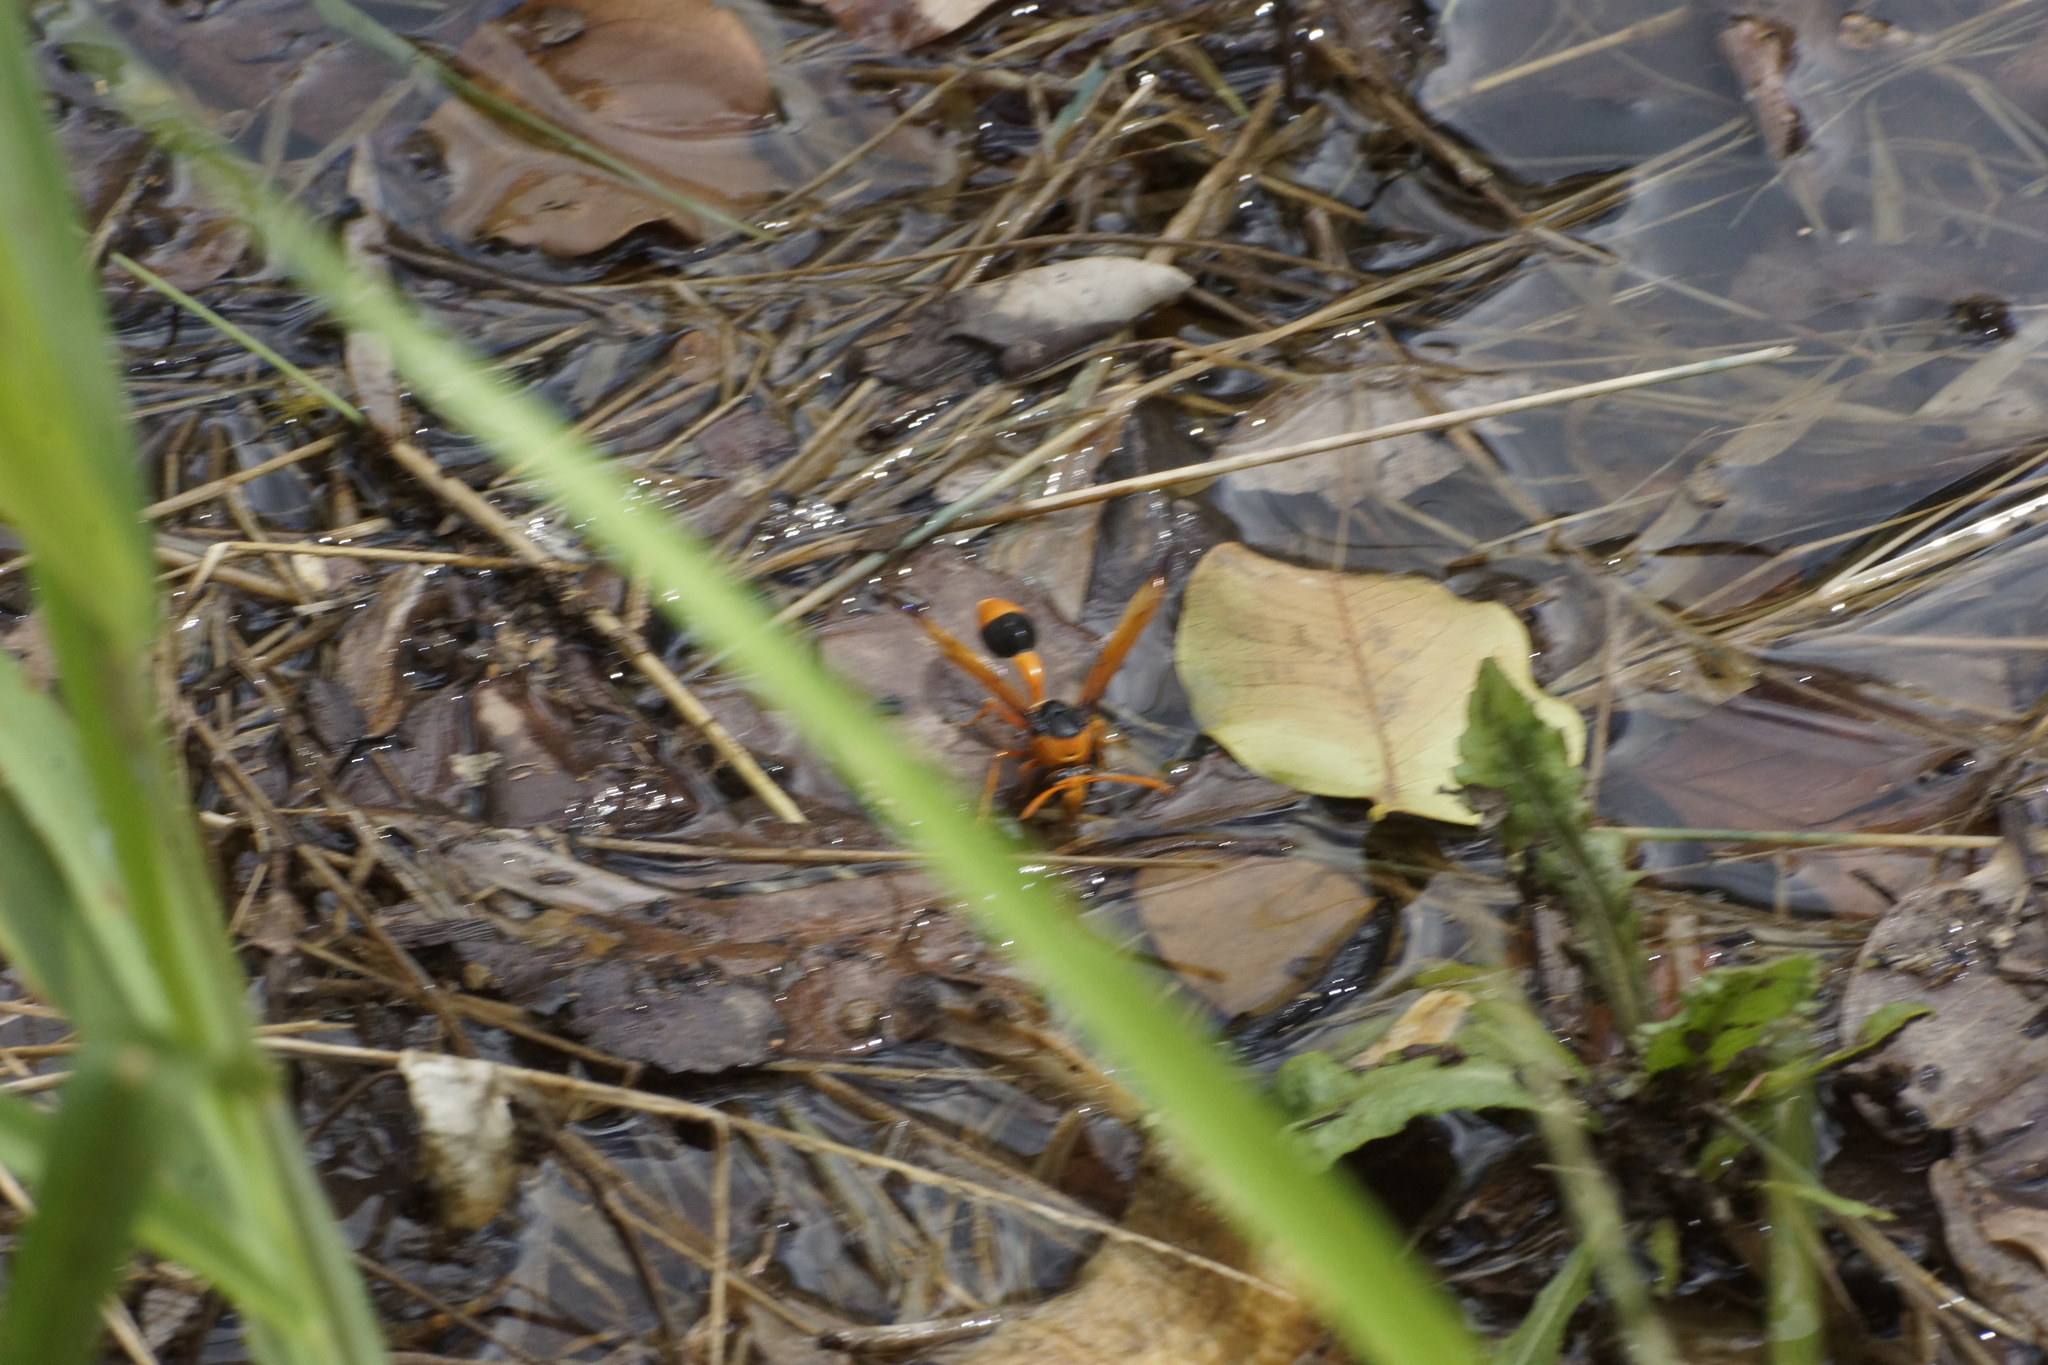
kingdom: Animalia
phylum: Arthropoda
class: Insecta
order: Hymenoptera
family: Eumenidae
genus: Delta
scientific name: Delta latreillei
